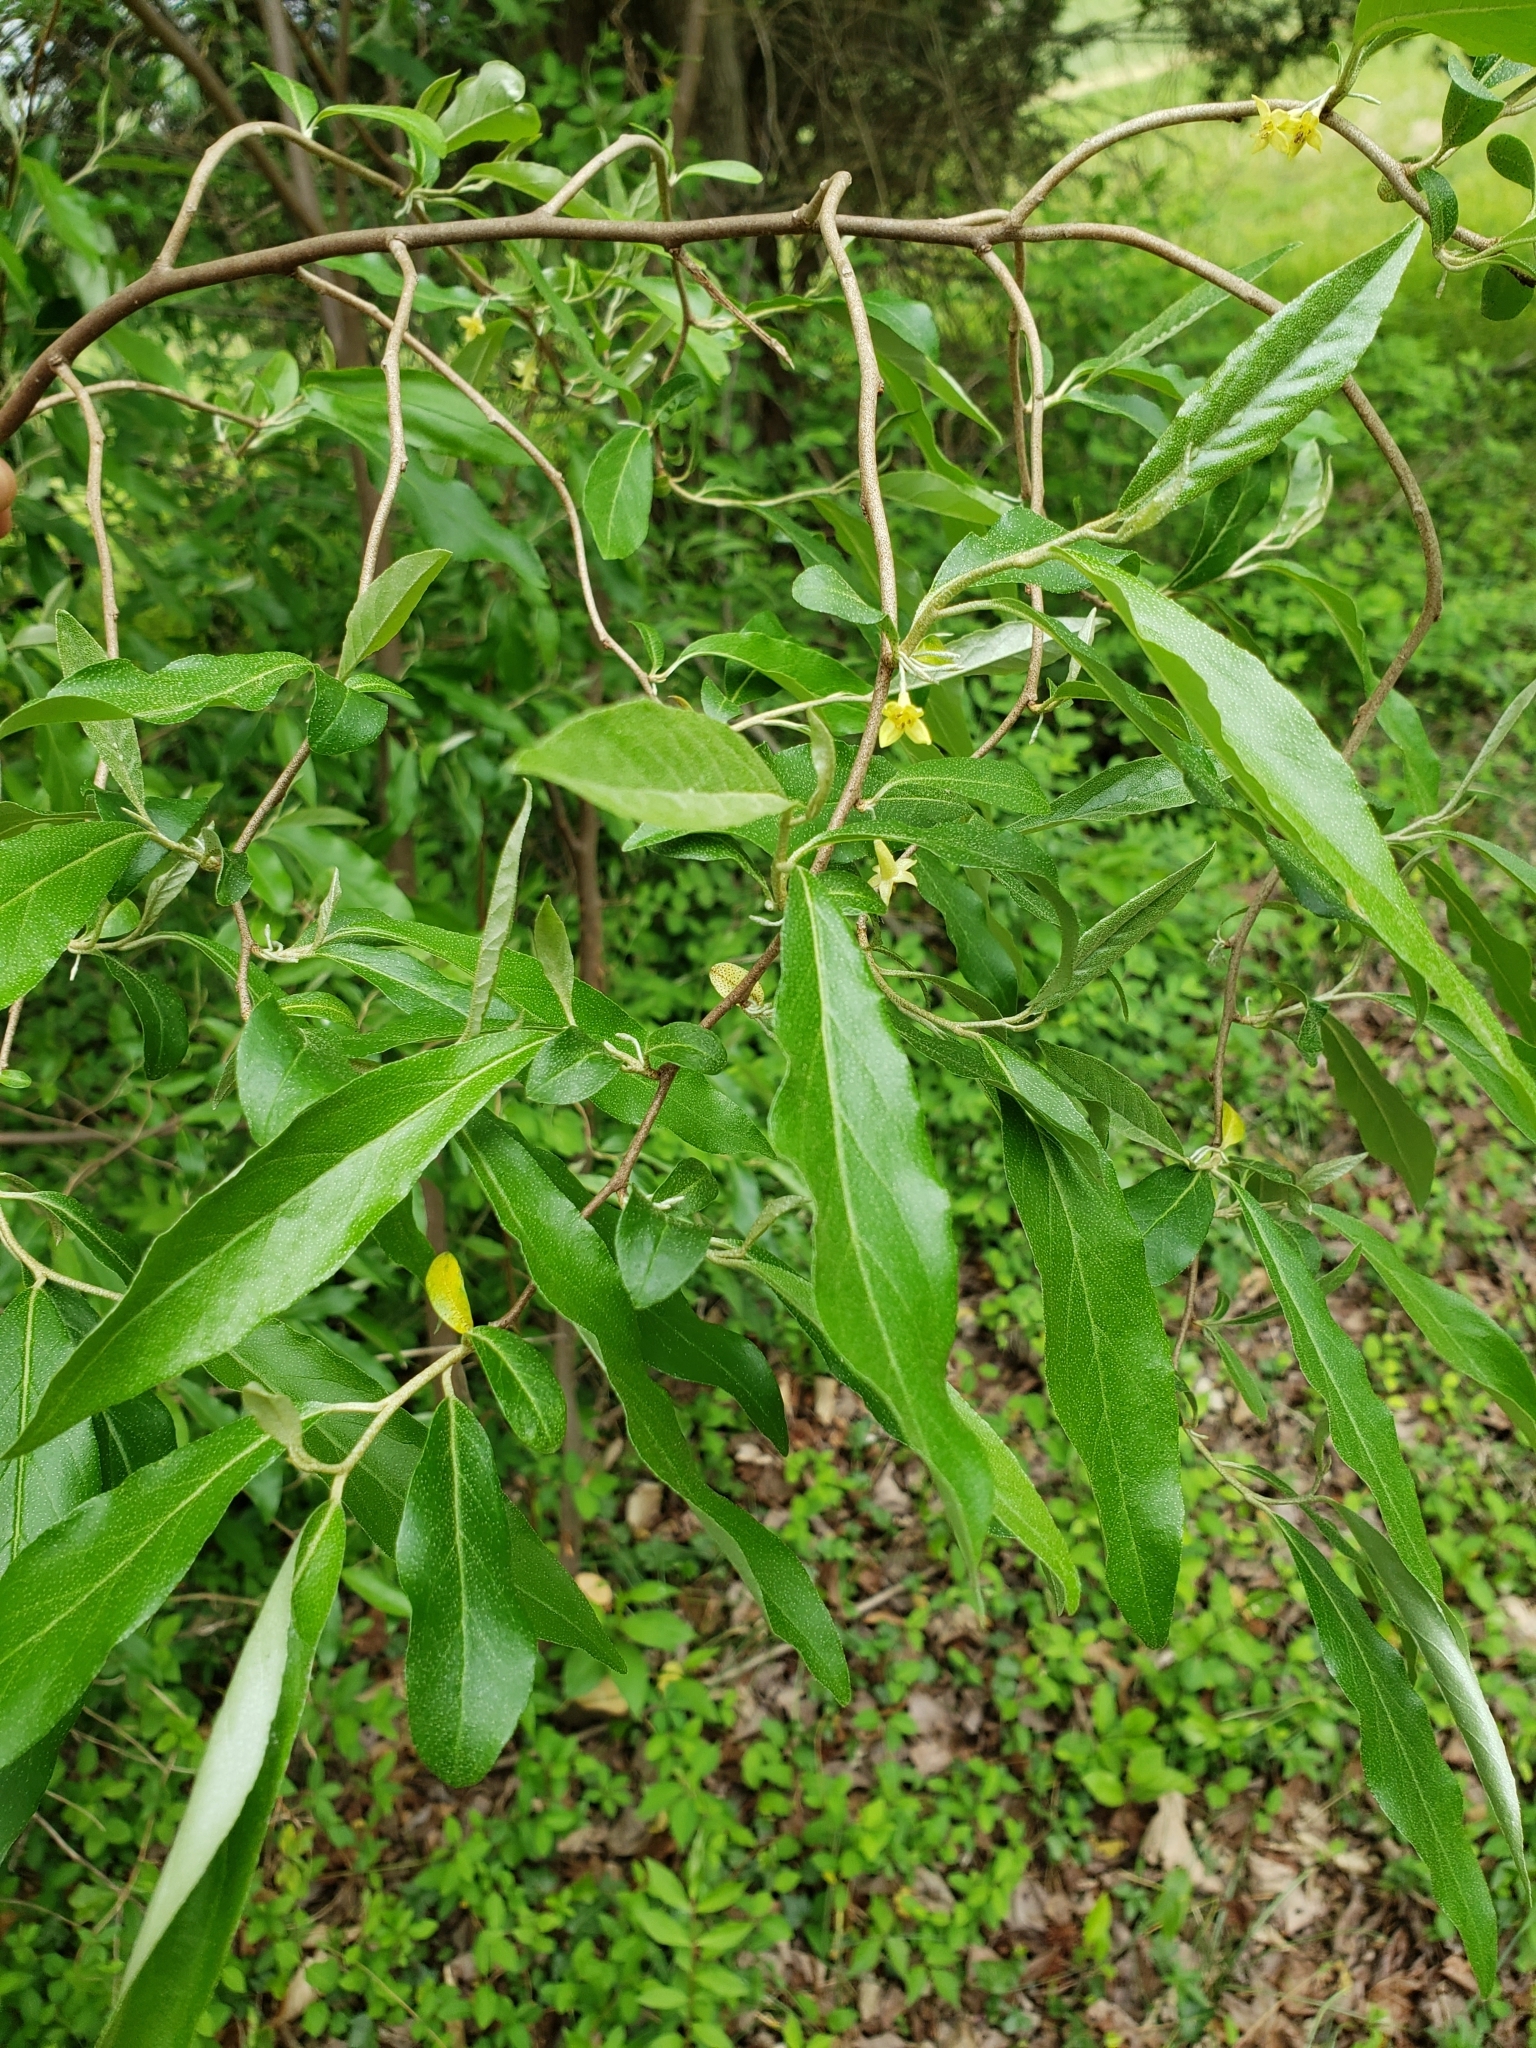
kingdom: Plantae
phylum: Tracheophyta
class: Magnoliopsida
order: Rosales
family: Elaeagnaceae
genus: Elaeagnus
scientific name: Elaeagnus umbellata
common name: Autumn olive
